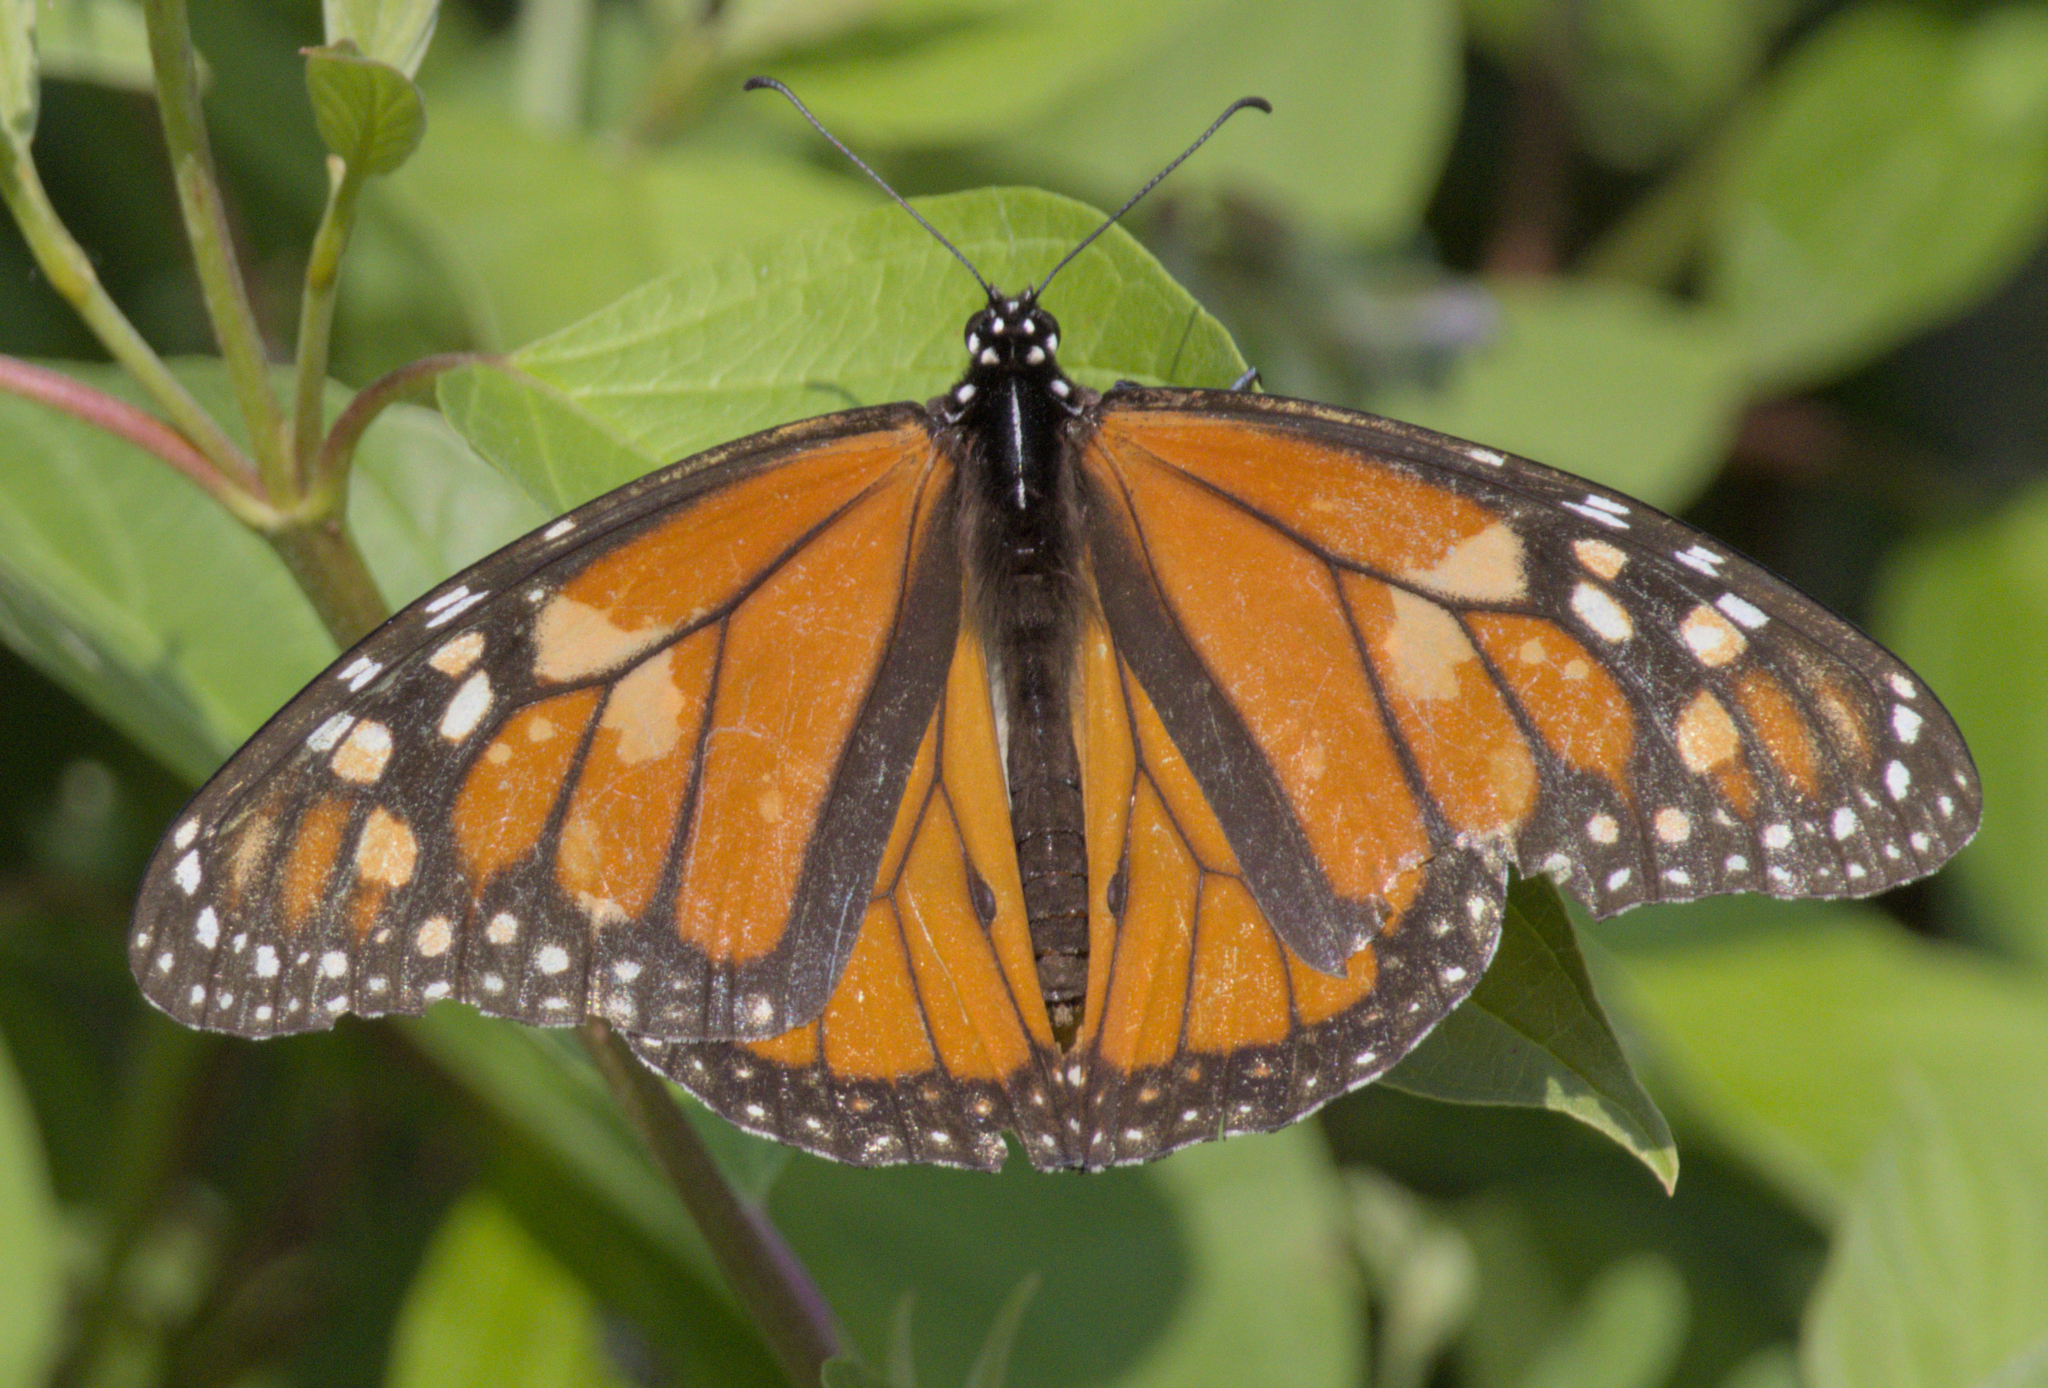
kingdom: Animalia
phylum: Arthropoda
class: Insecta
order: Lepidoptera
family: Nymphalidae
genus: Danaus
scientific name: Danaus plexippus
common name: Monarch
